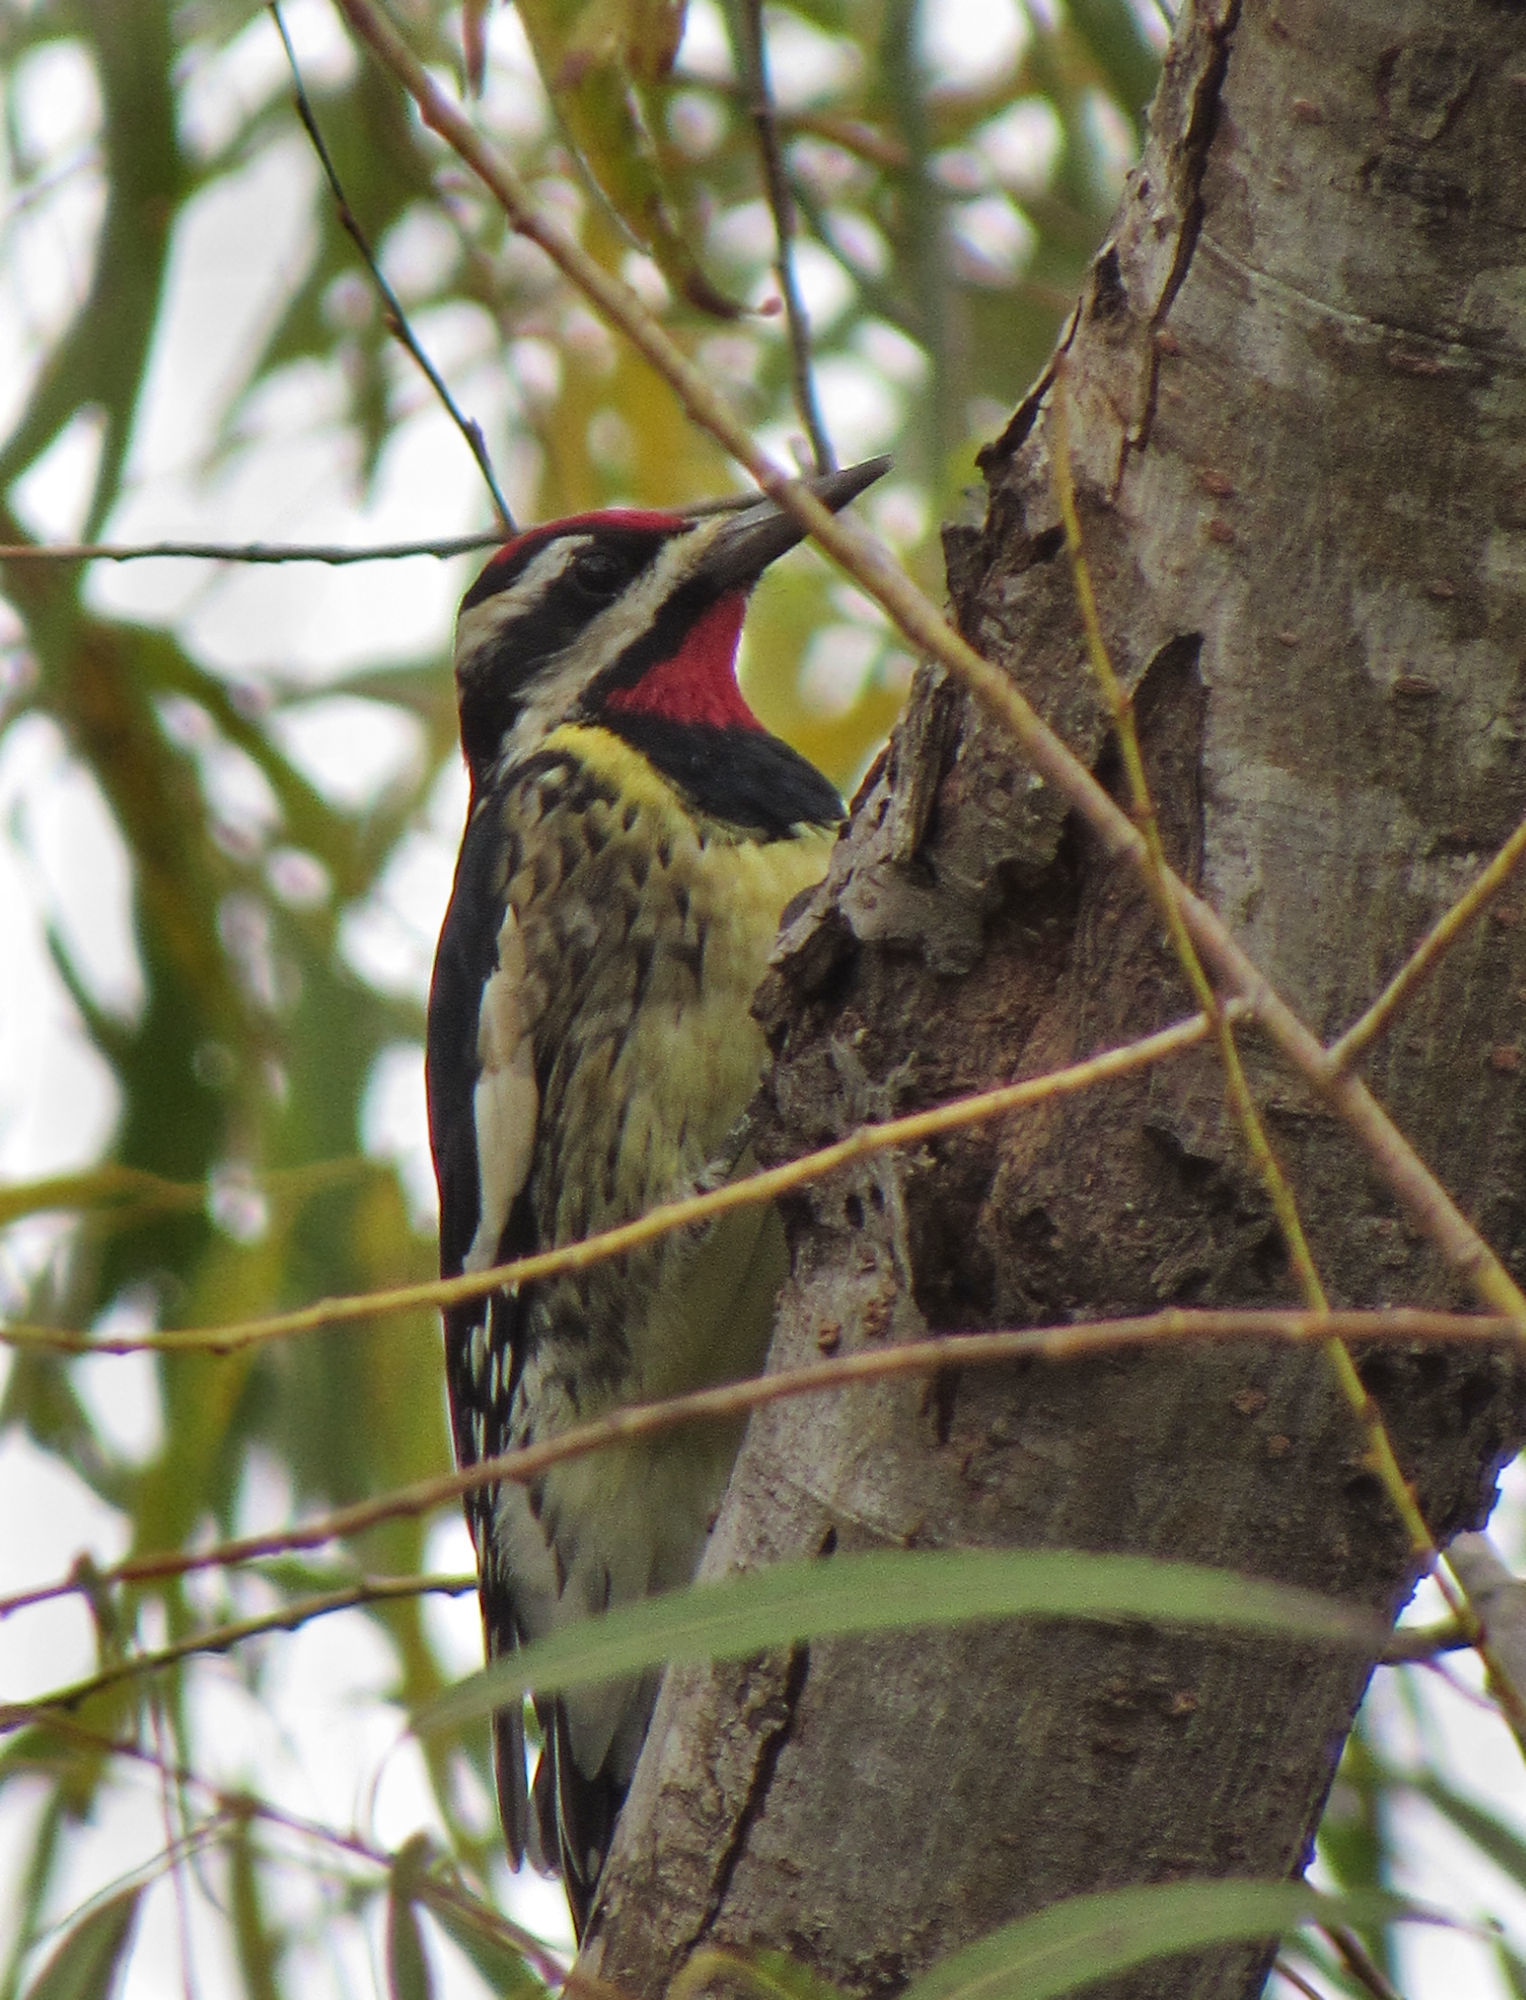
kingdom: Animalia
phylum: Chordata
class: Aves
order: Piciformes
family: Picidae
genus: Sphyrapicus
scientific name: Sphyrapicus varius
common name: Yellow-bellied sapsucker
